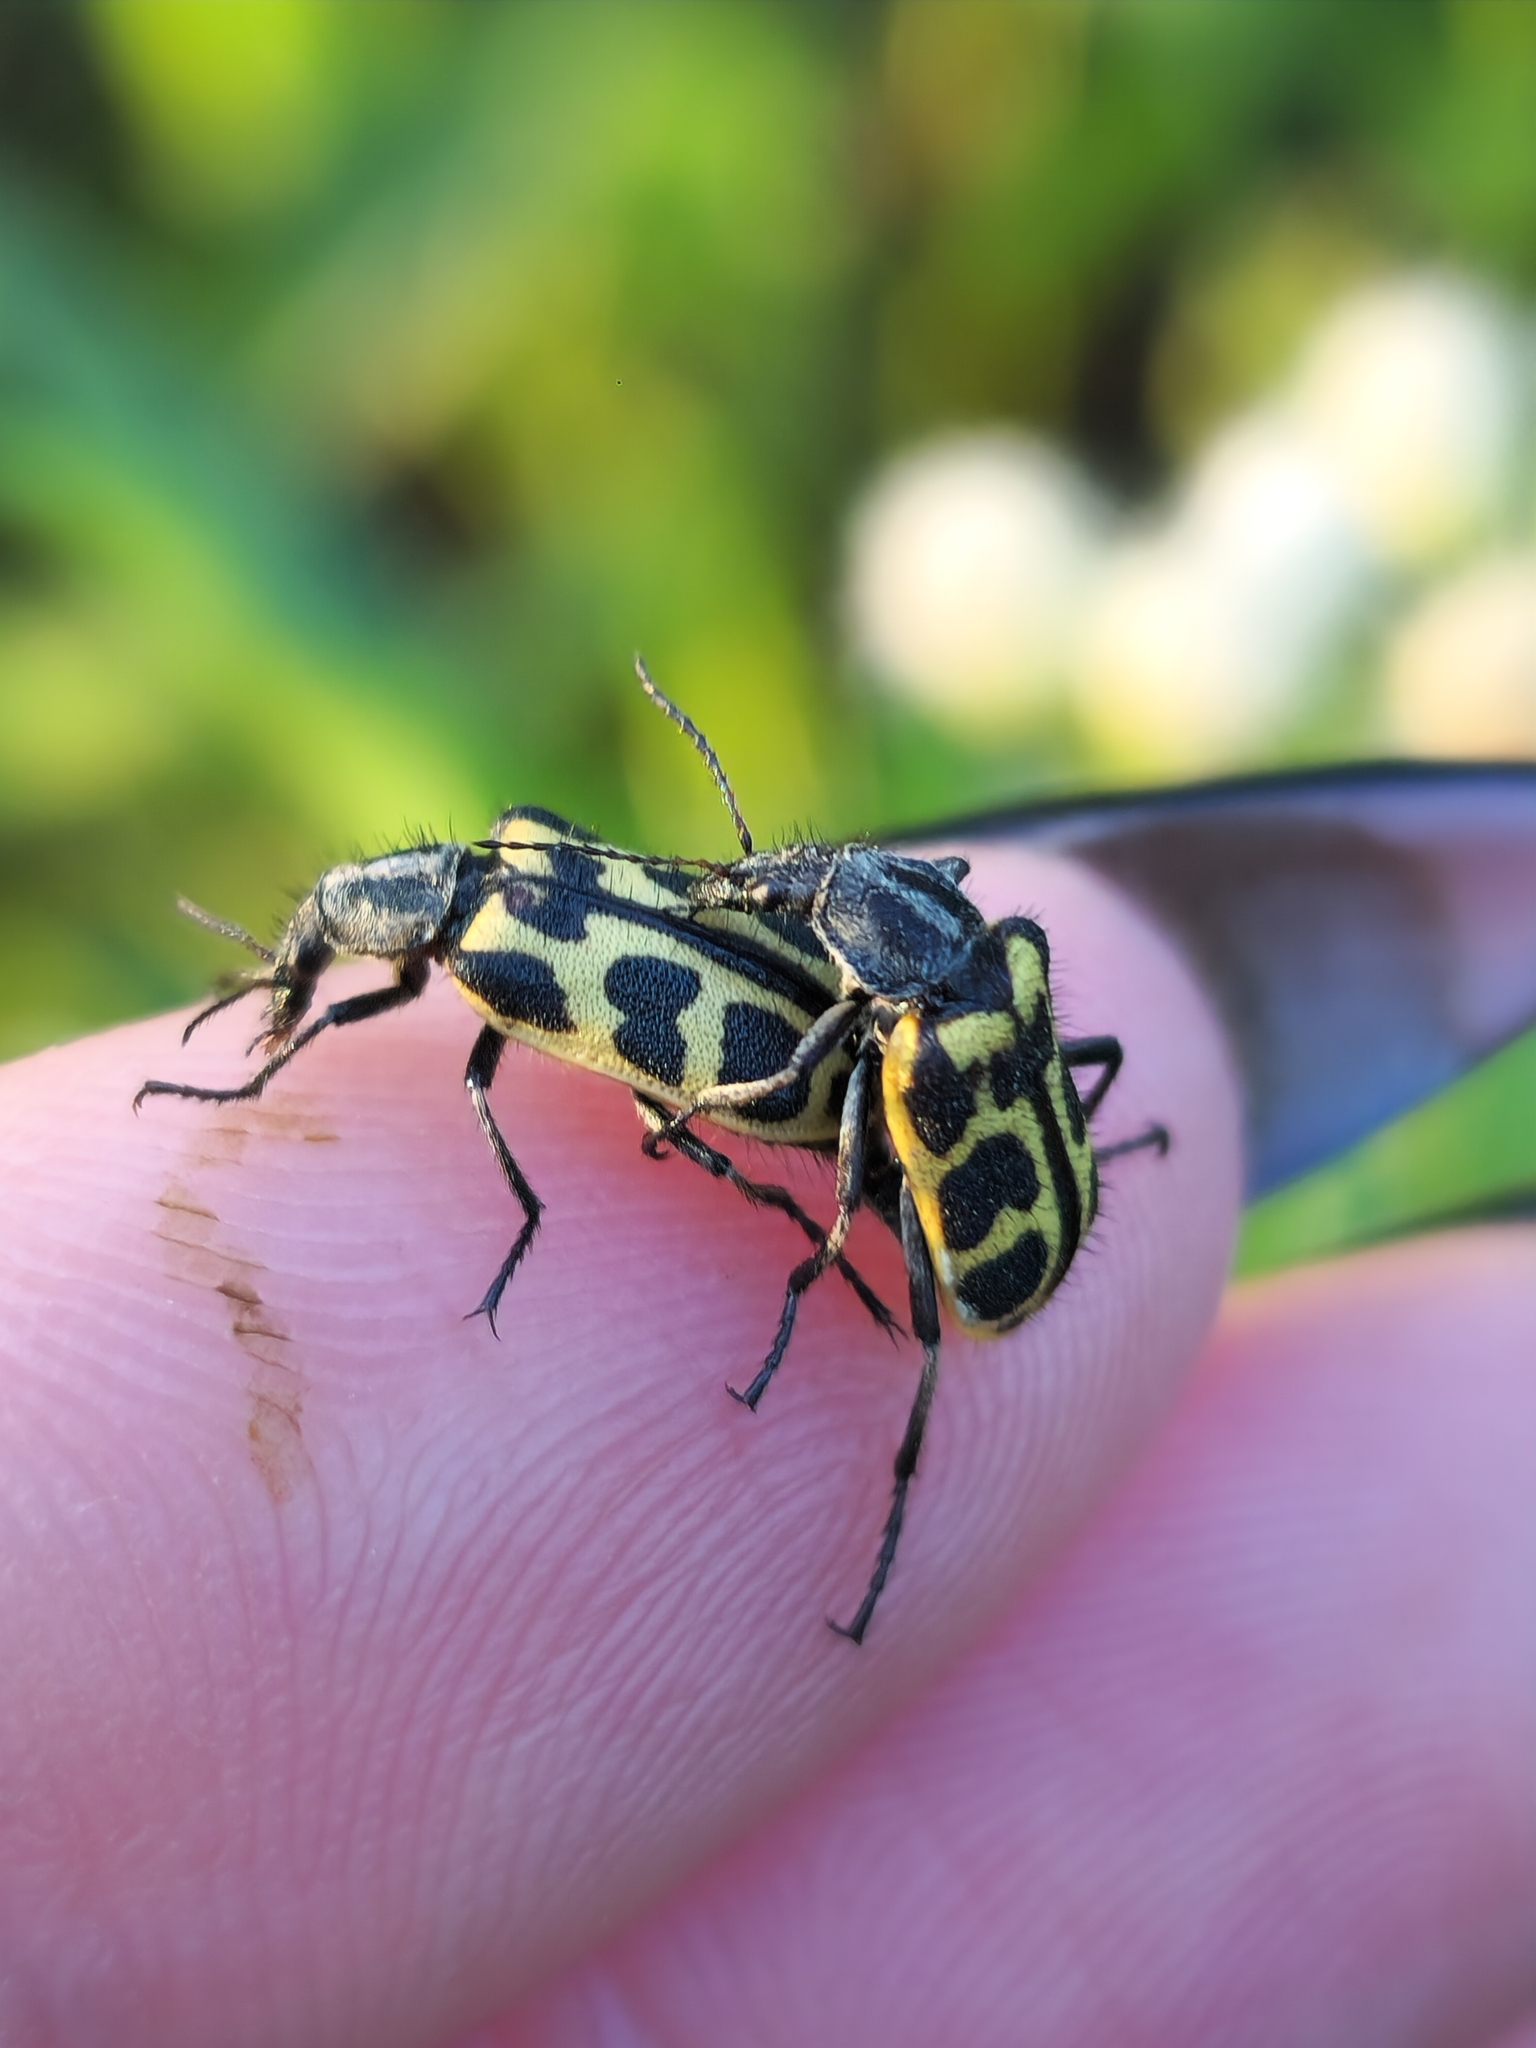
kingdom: Animalia
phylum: Arthropoda
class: Insecta
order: Coleoptera
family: Melyridae
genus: Astylus
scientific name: Astylus atromaculatus
